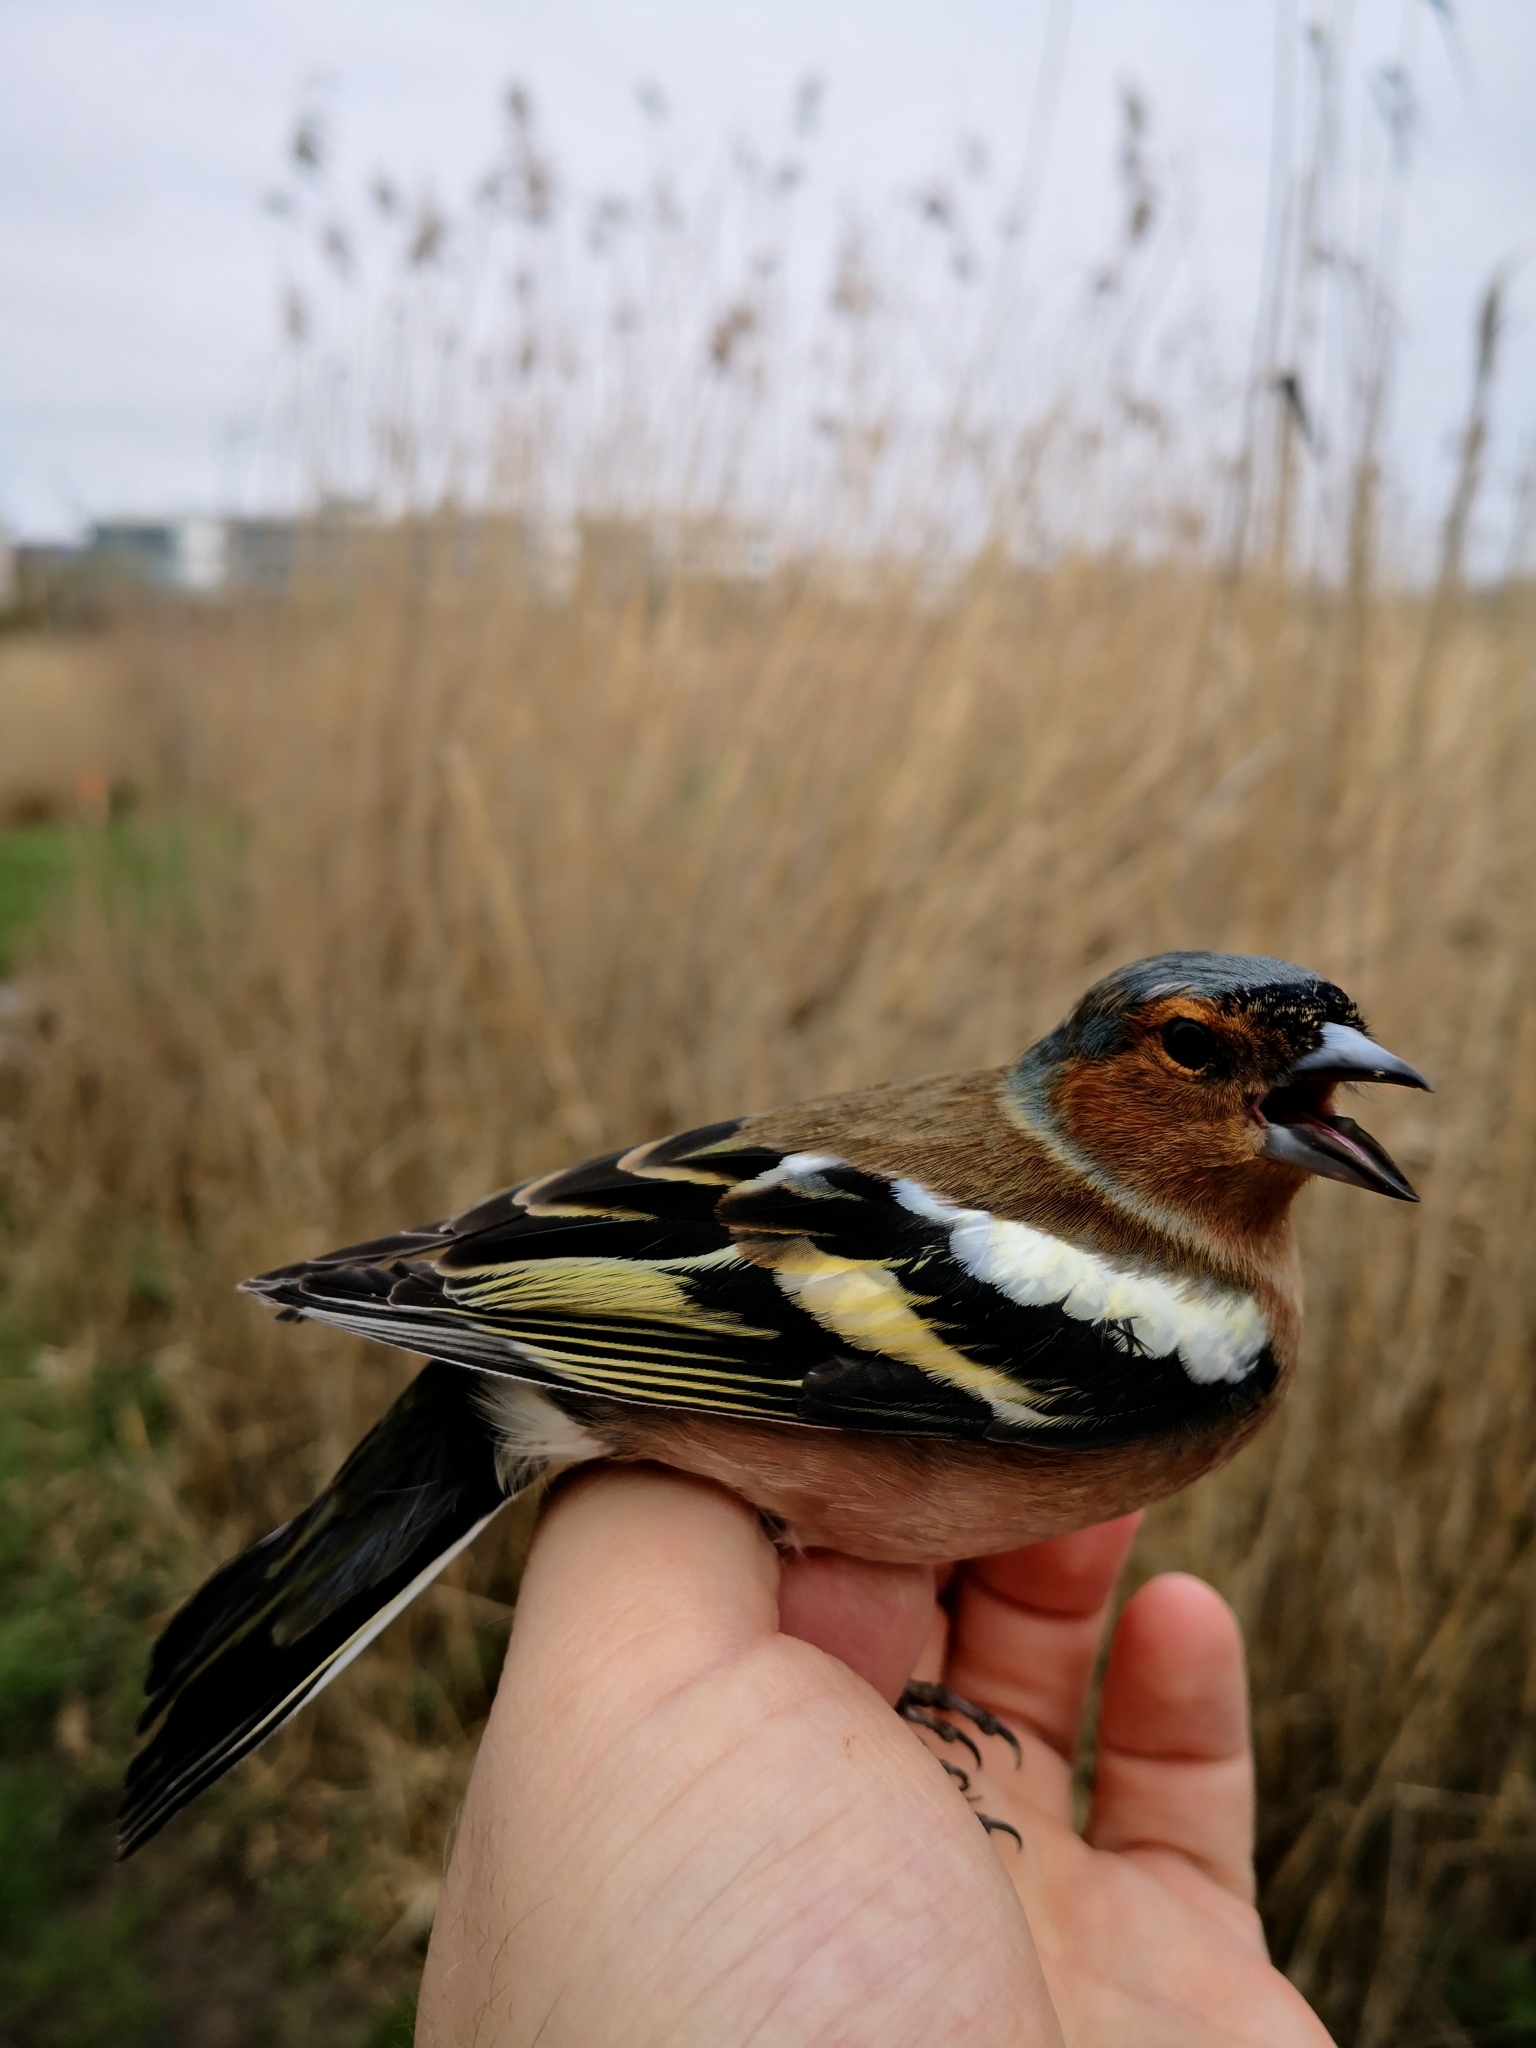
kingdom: Animalia
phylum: Chordata
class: Aves
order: Passeriformes
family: Fringillidae
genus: Fringilla
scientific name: Fringilla coelebs
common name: Common chaffinch
